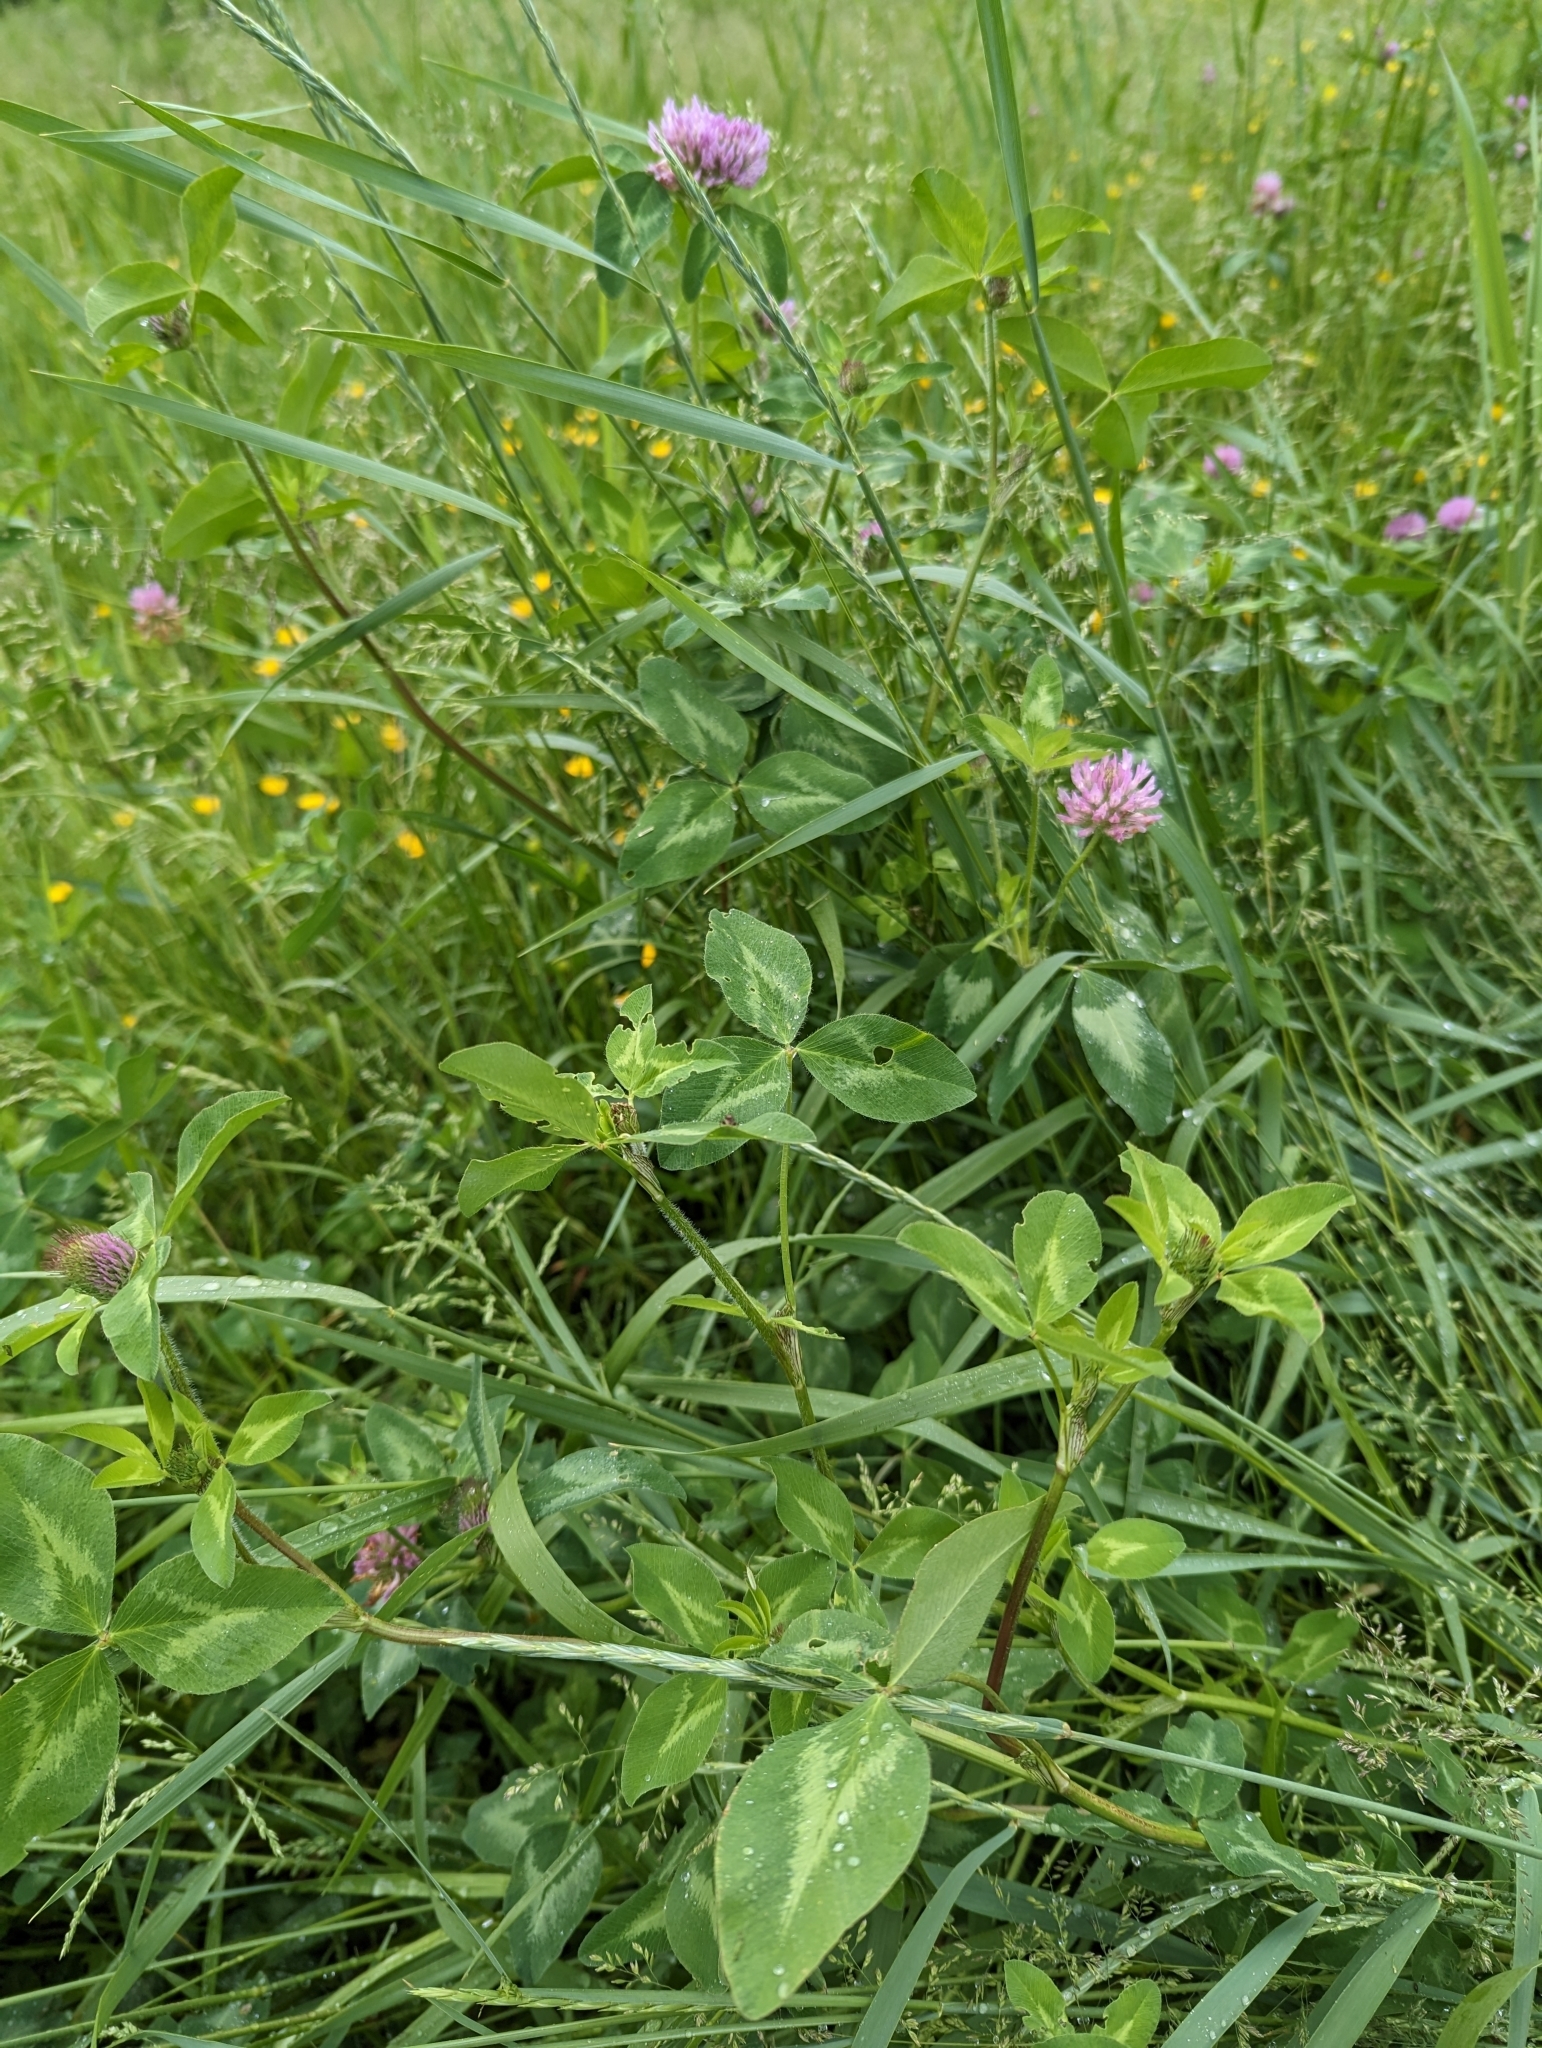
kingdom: Plantae
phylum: Tracheophyta
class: Magnoliopsida
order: Fabales
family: Fabaceae
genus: Trifolium
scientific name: Trifolium pratense
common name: Red clover
